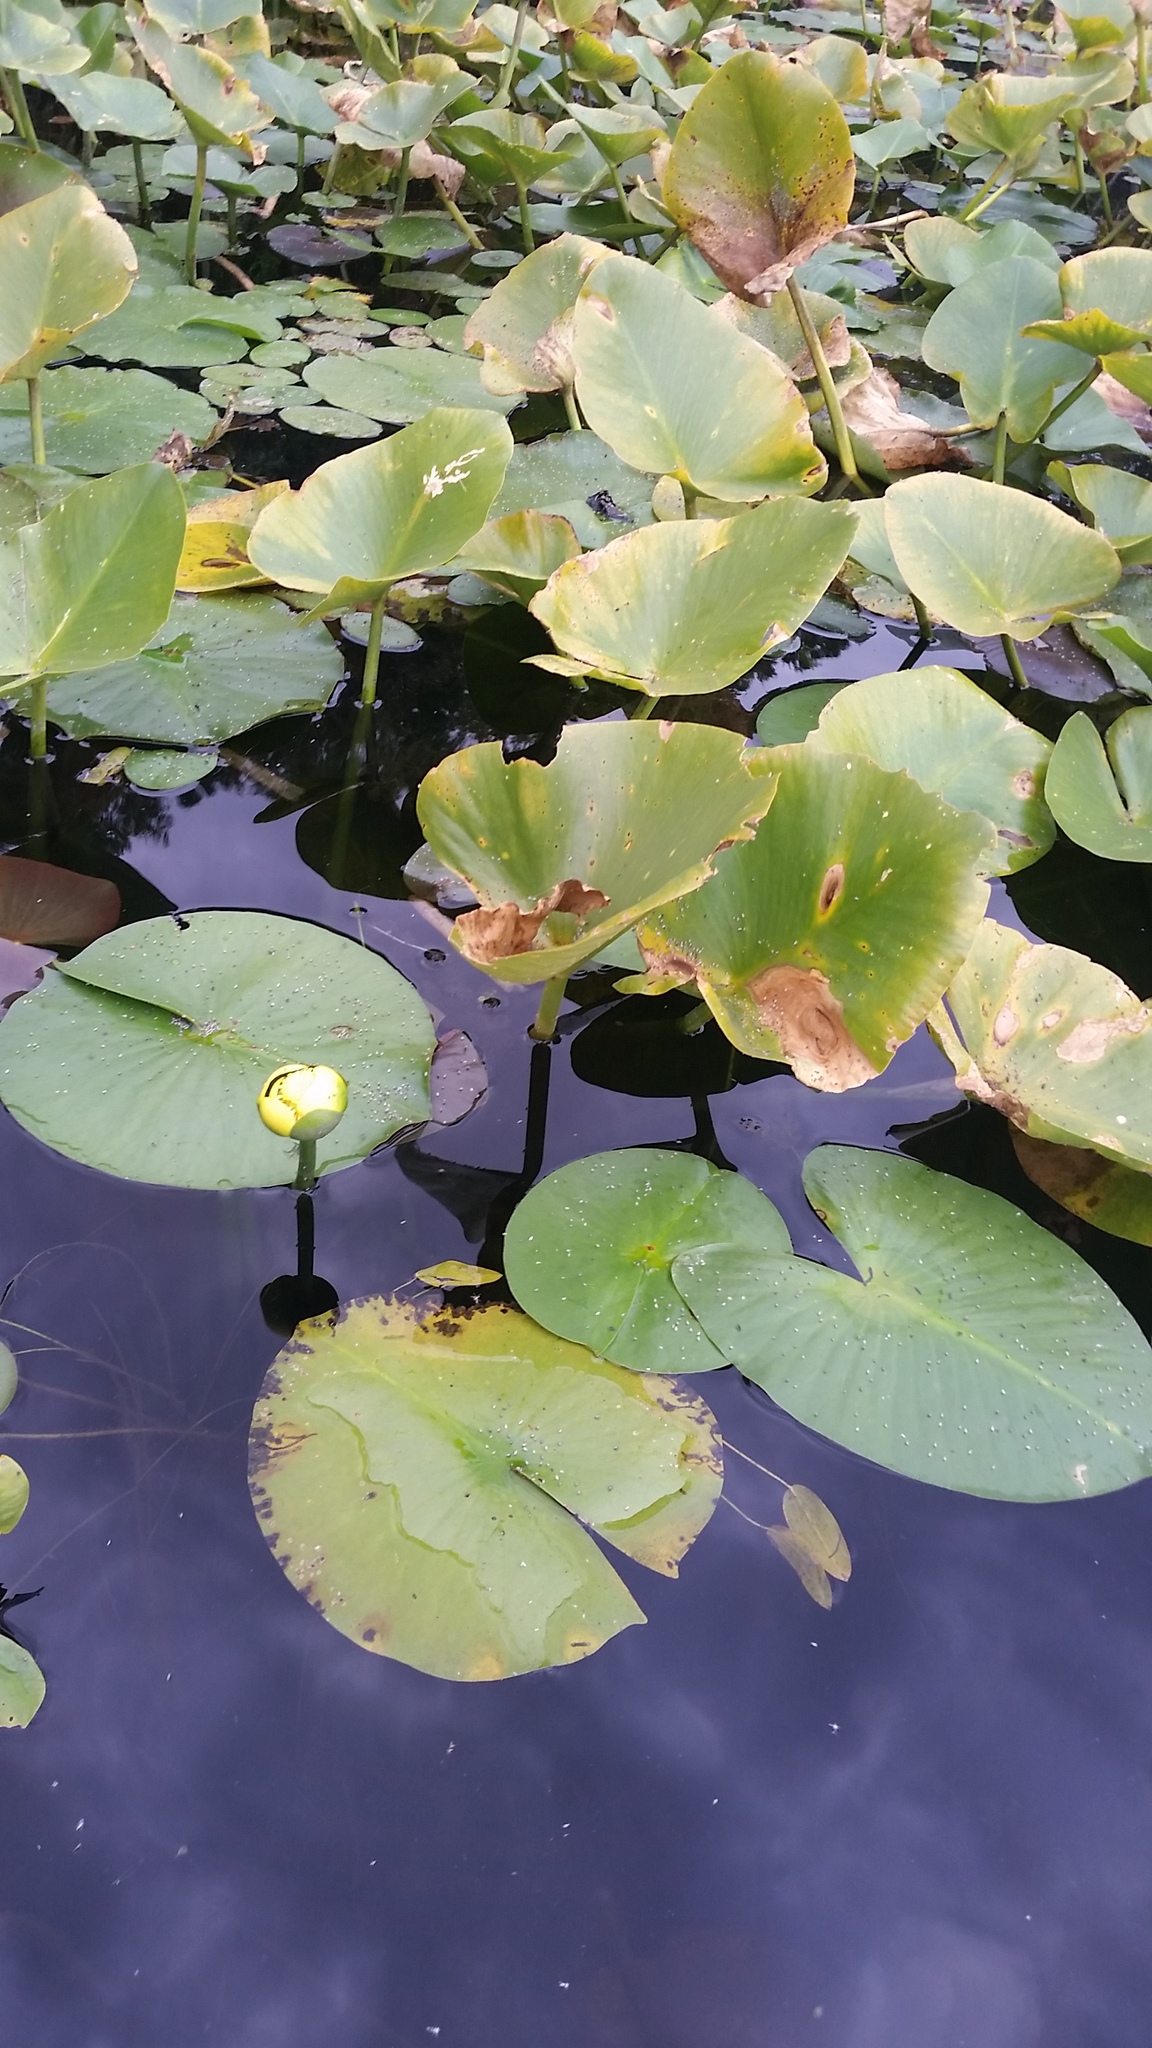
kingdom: Plantae
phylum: Tracheophyta
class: Magnoliopsida
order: Nymphaeales
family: Nymphaeaceae
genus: Nuphar
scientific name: Nuphar advena
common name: Spatter-dock
